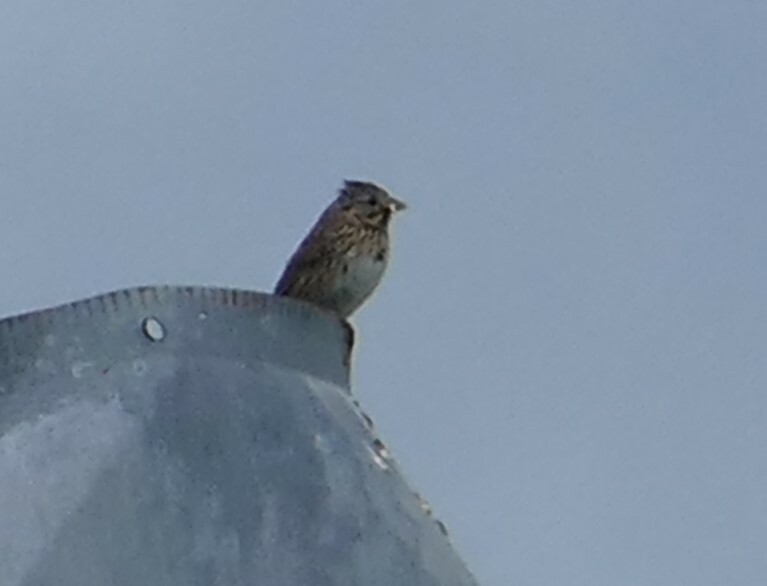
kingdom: Animalia
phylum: Chordata
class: Aves
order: Passeriformes
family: Passerellidae
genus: Melospiza
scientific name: Melospiza melodia
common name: Song sparrow
